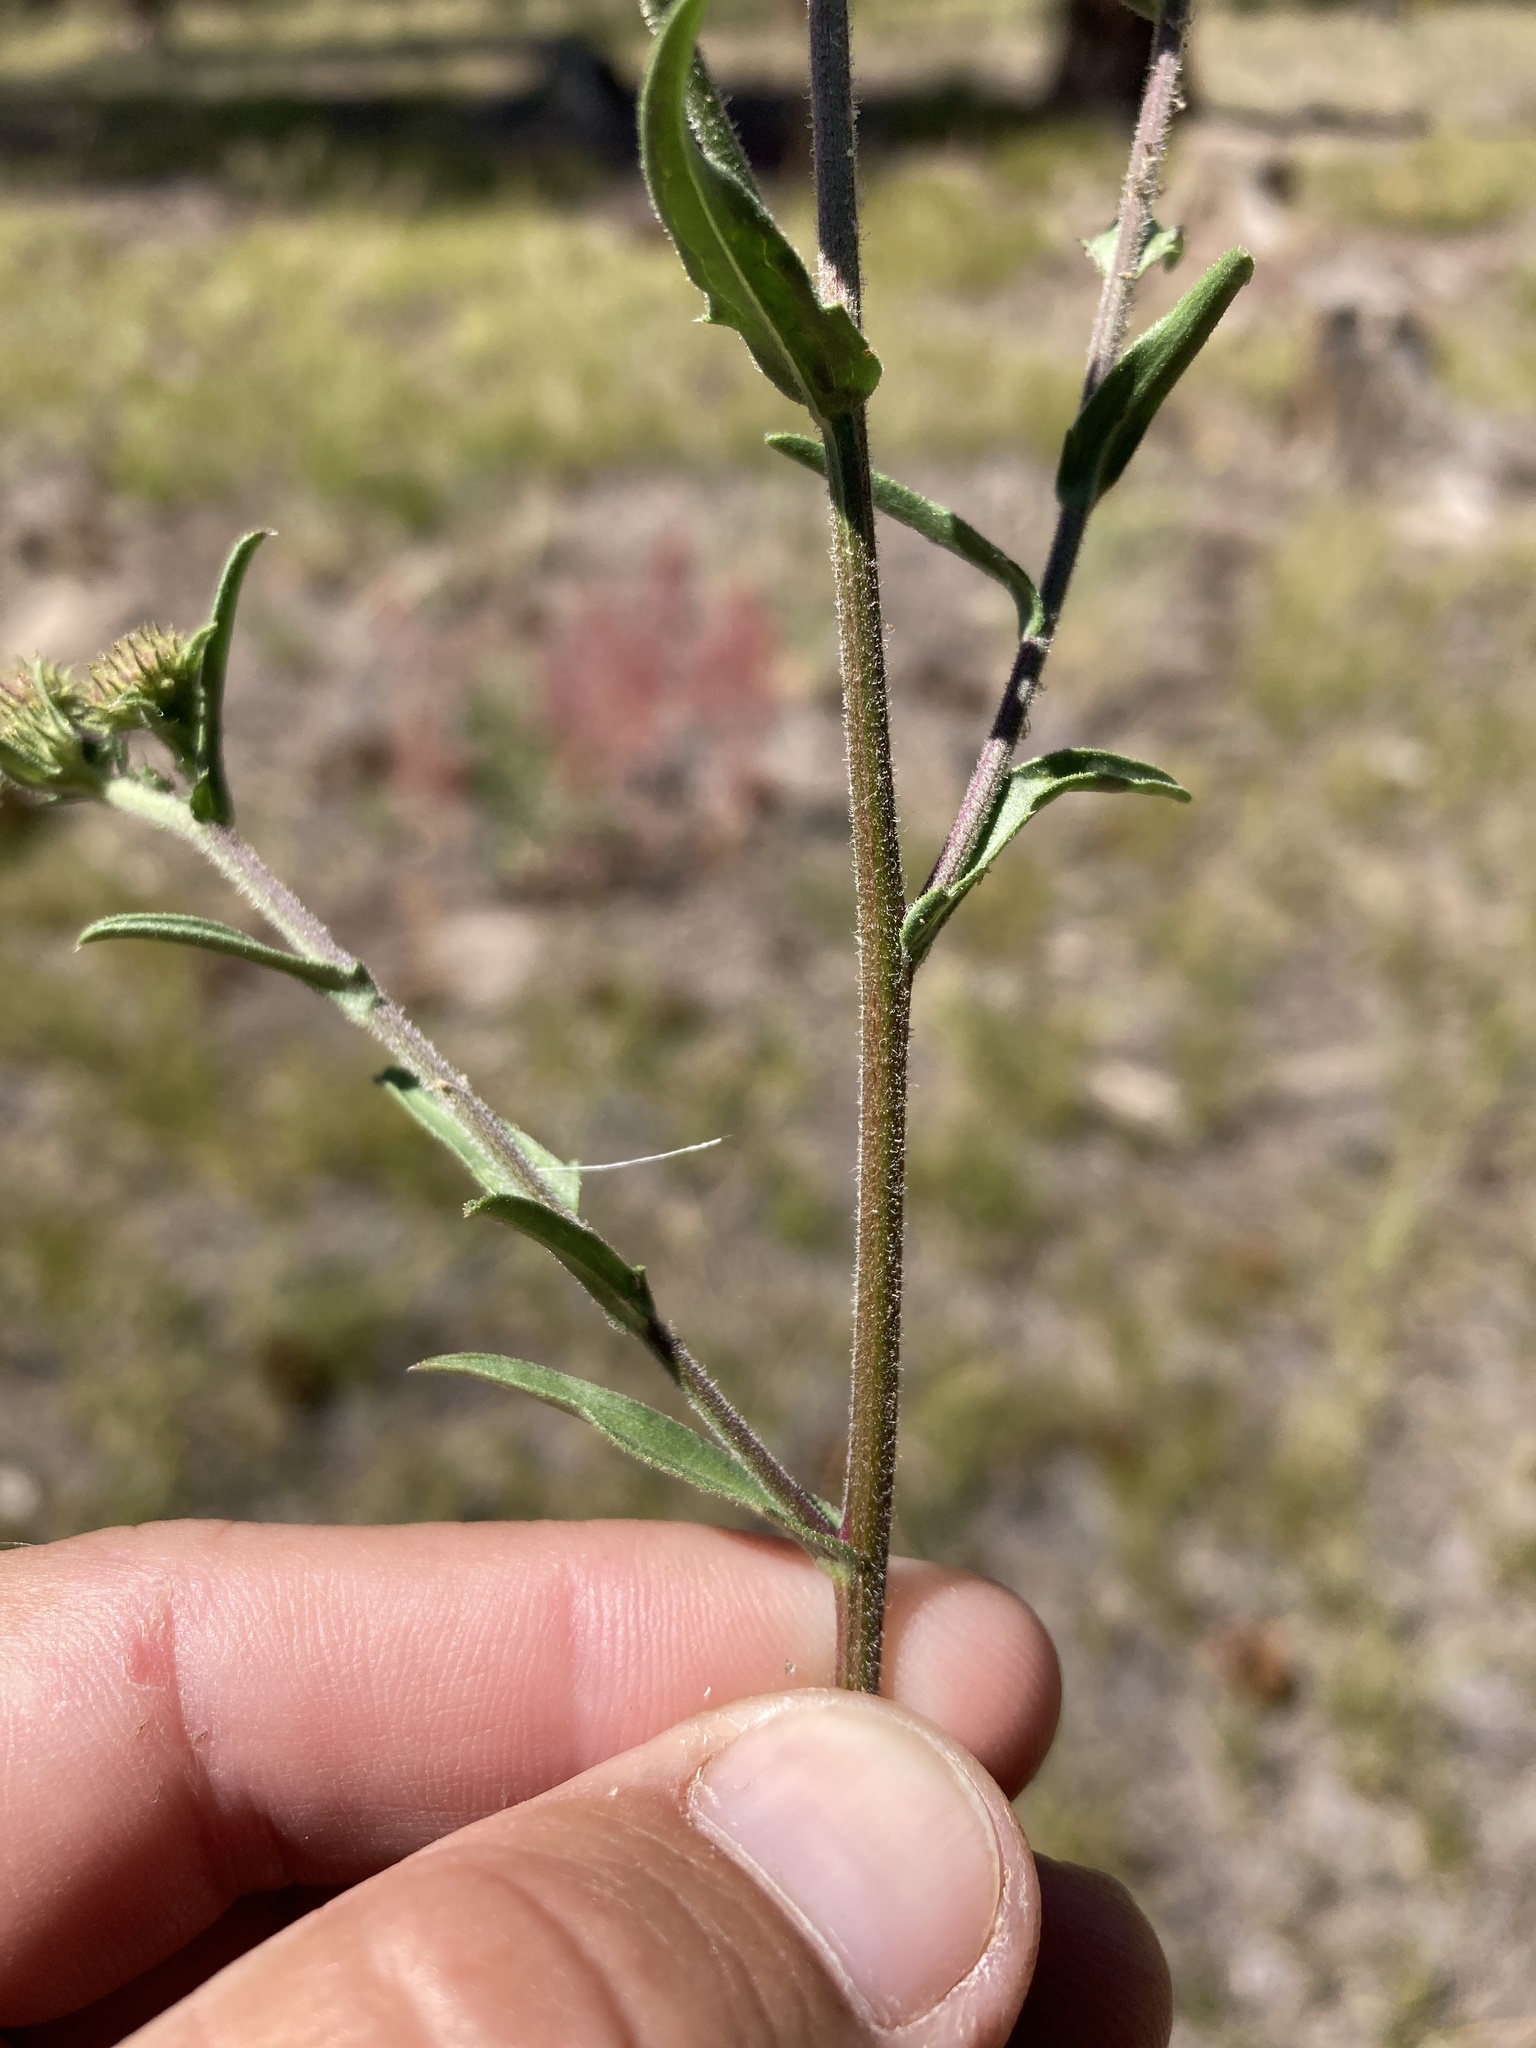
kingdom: Plantae
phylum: Tracheophyta
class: Magnoliopsida
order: Asterales
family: Asteraceae
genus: Dieteria
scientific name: Dieteria bigelovii
